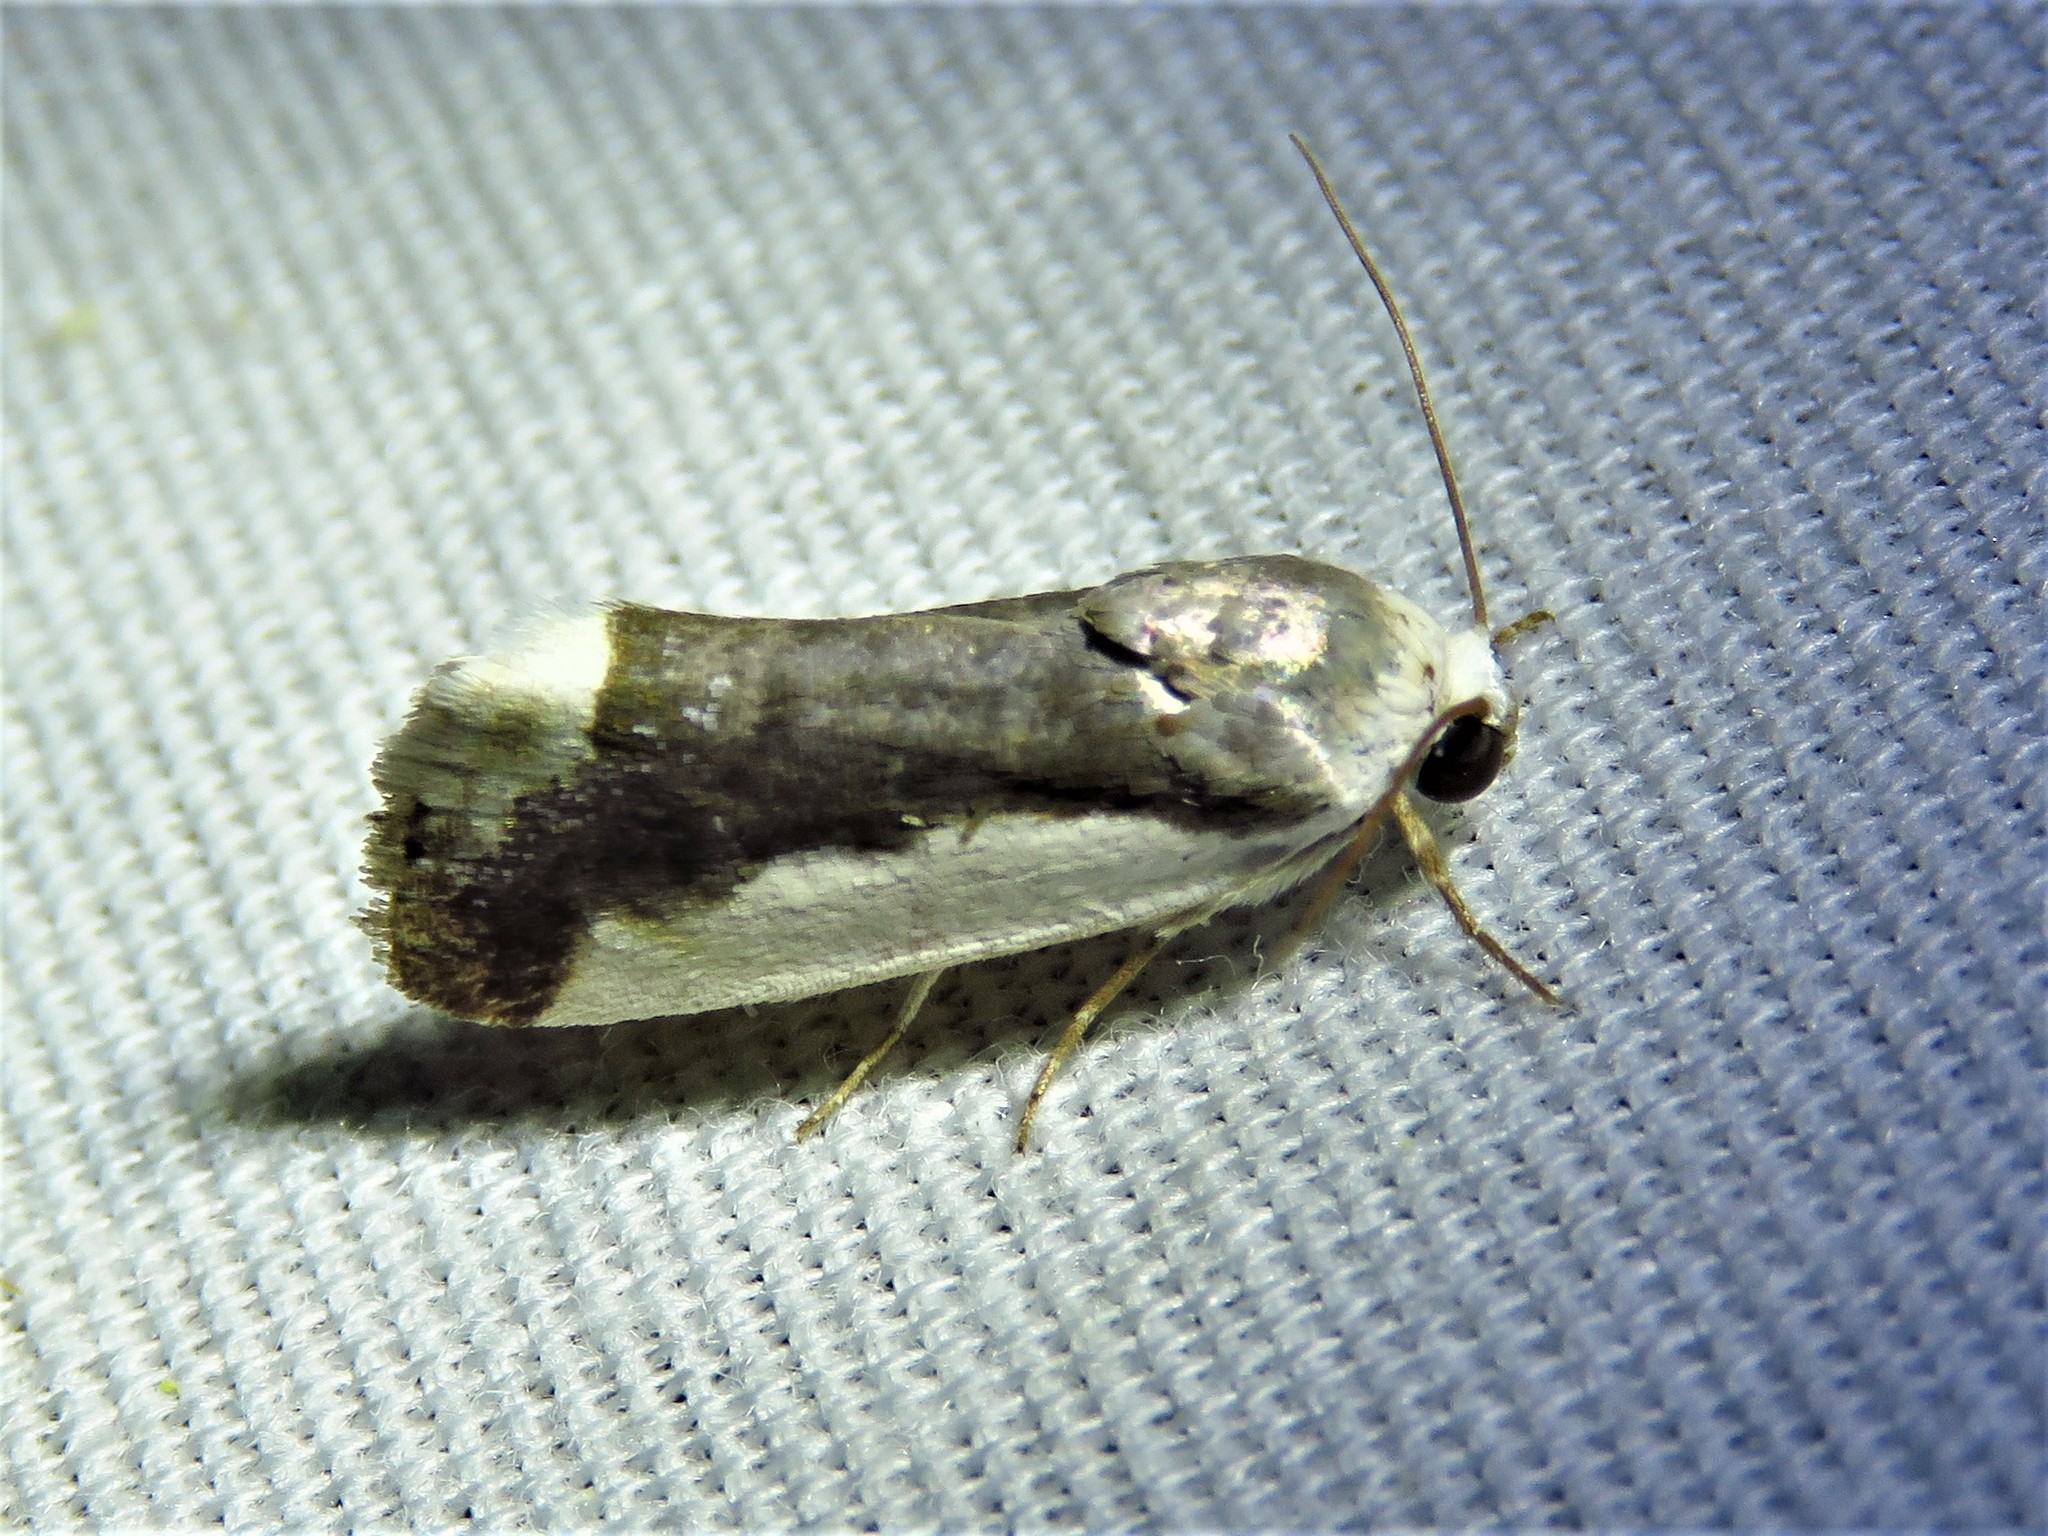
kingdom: Animalia
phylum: Arthropoda
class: Insecta
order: Lepidoptera
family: Noctuidae
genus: Acontia
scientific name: Acontia Tarache expolita
